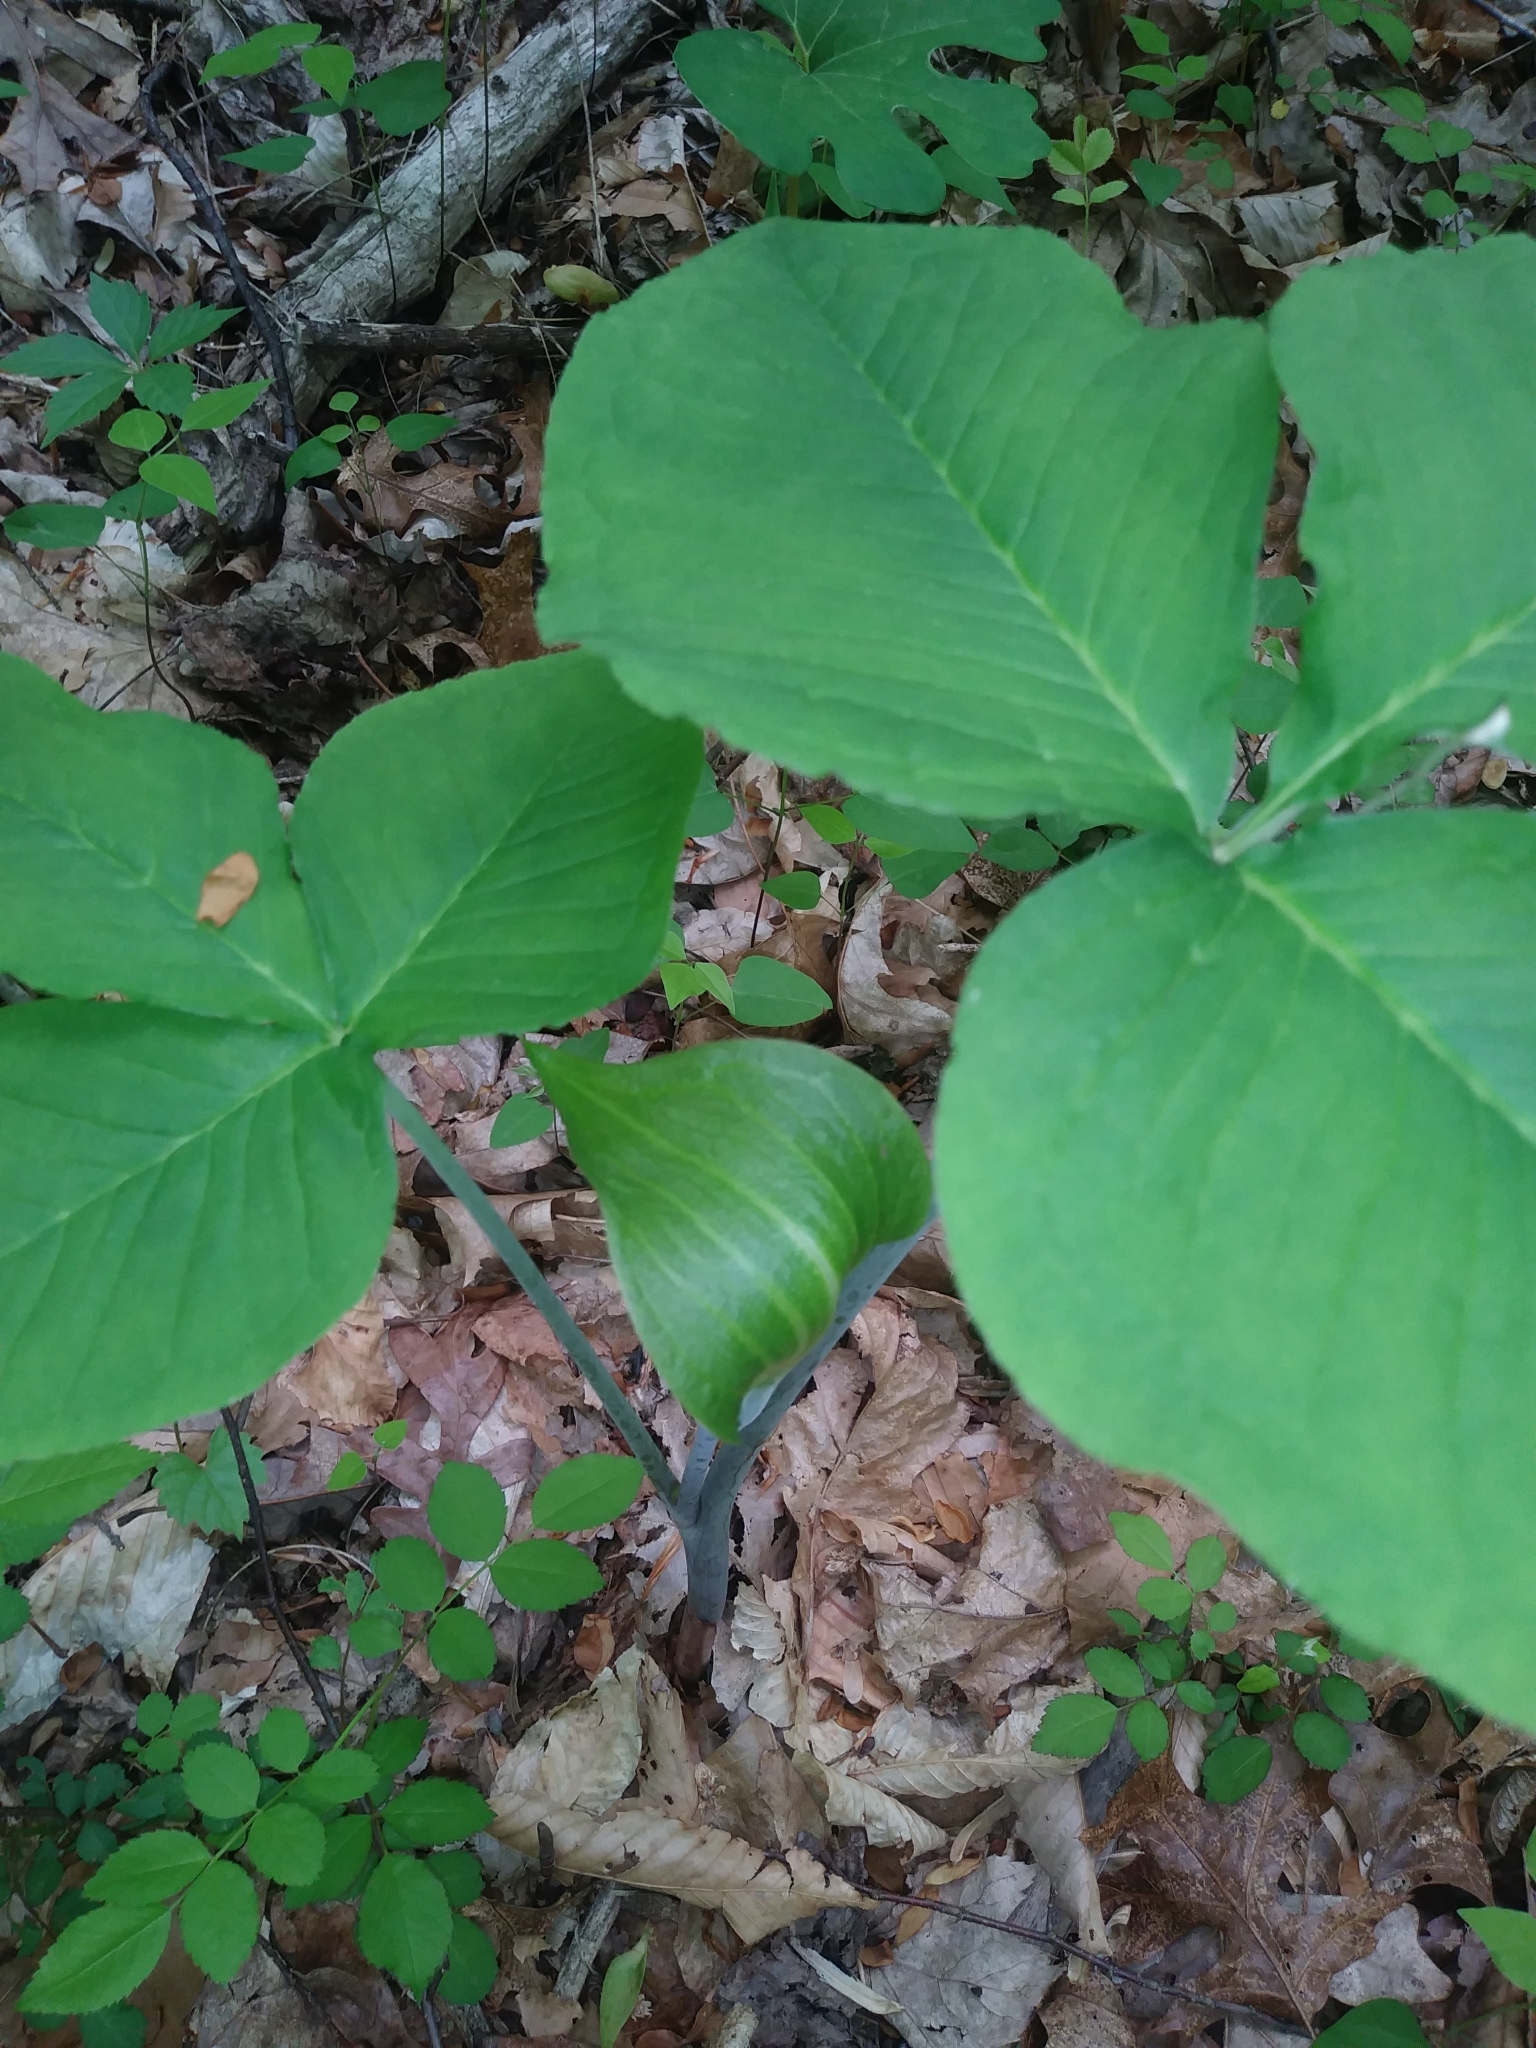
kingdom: Plantae
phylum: Tracheophyta
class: Liliopsida
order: Alismatales
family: Araceae
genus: Arisaema
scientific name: Arisaema triphyllum
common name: Jack-in-the-pulpit
